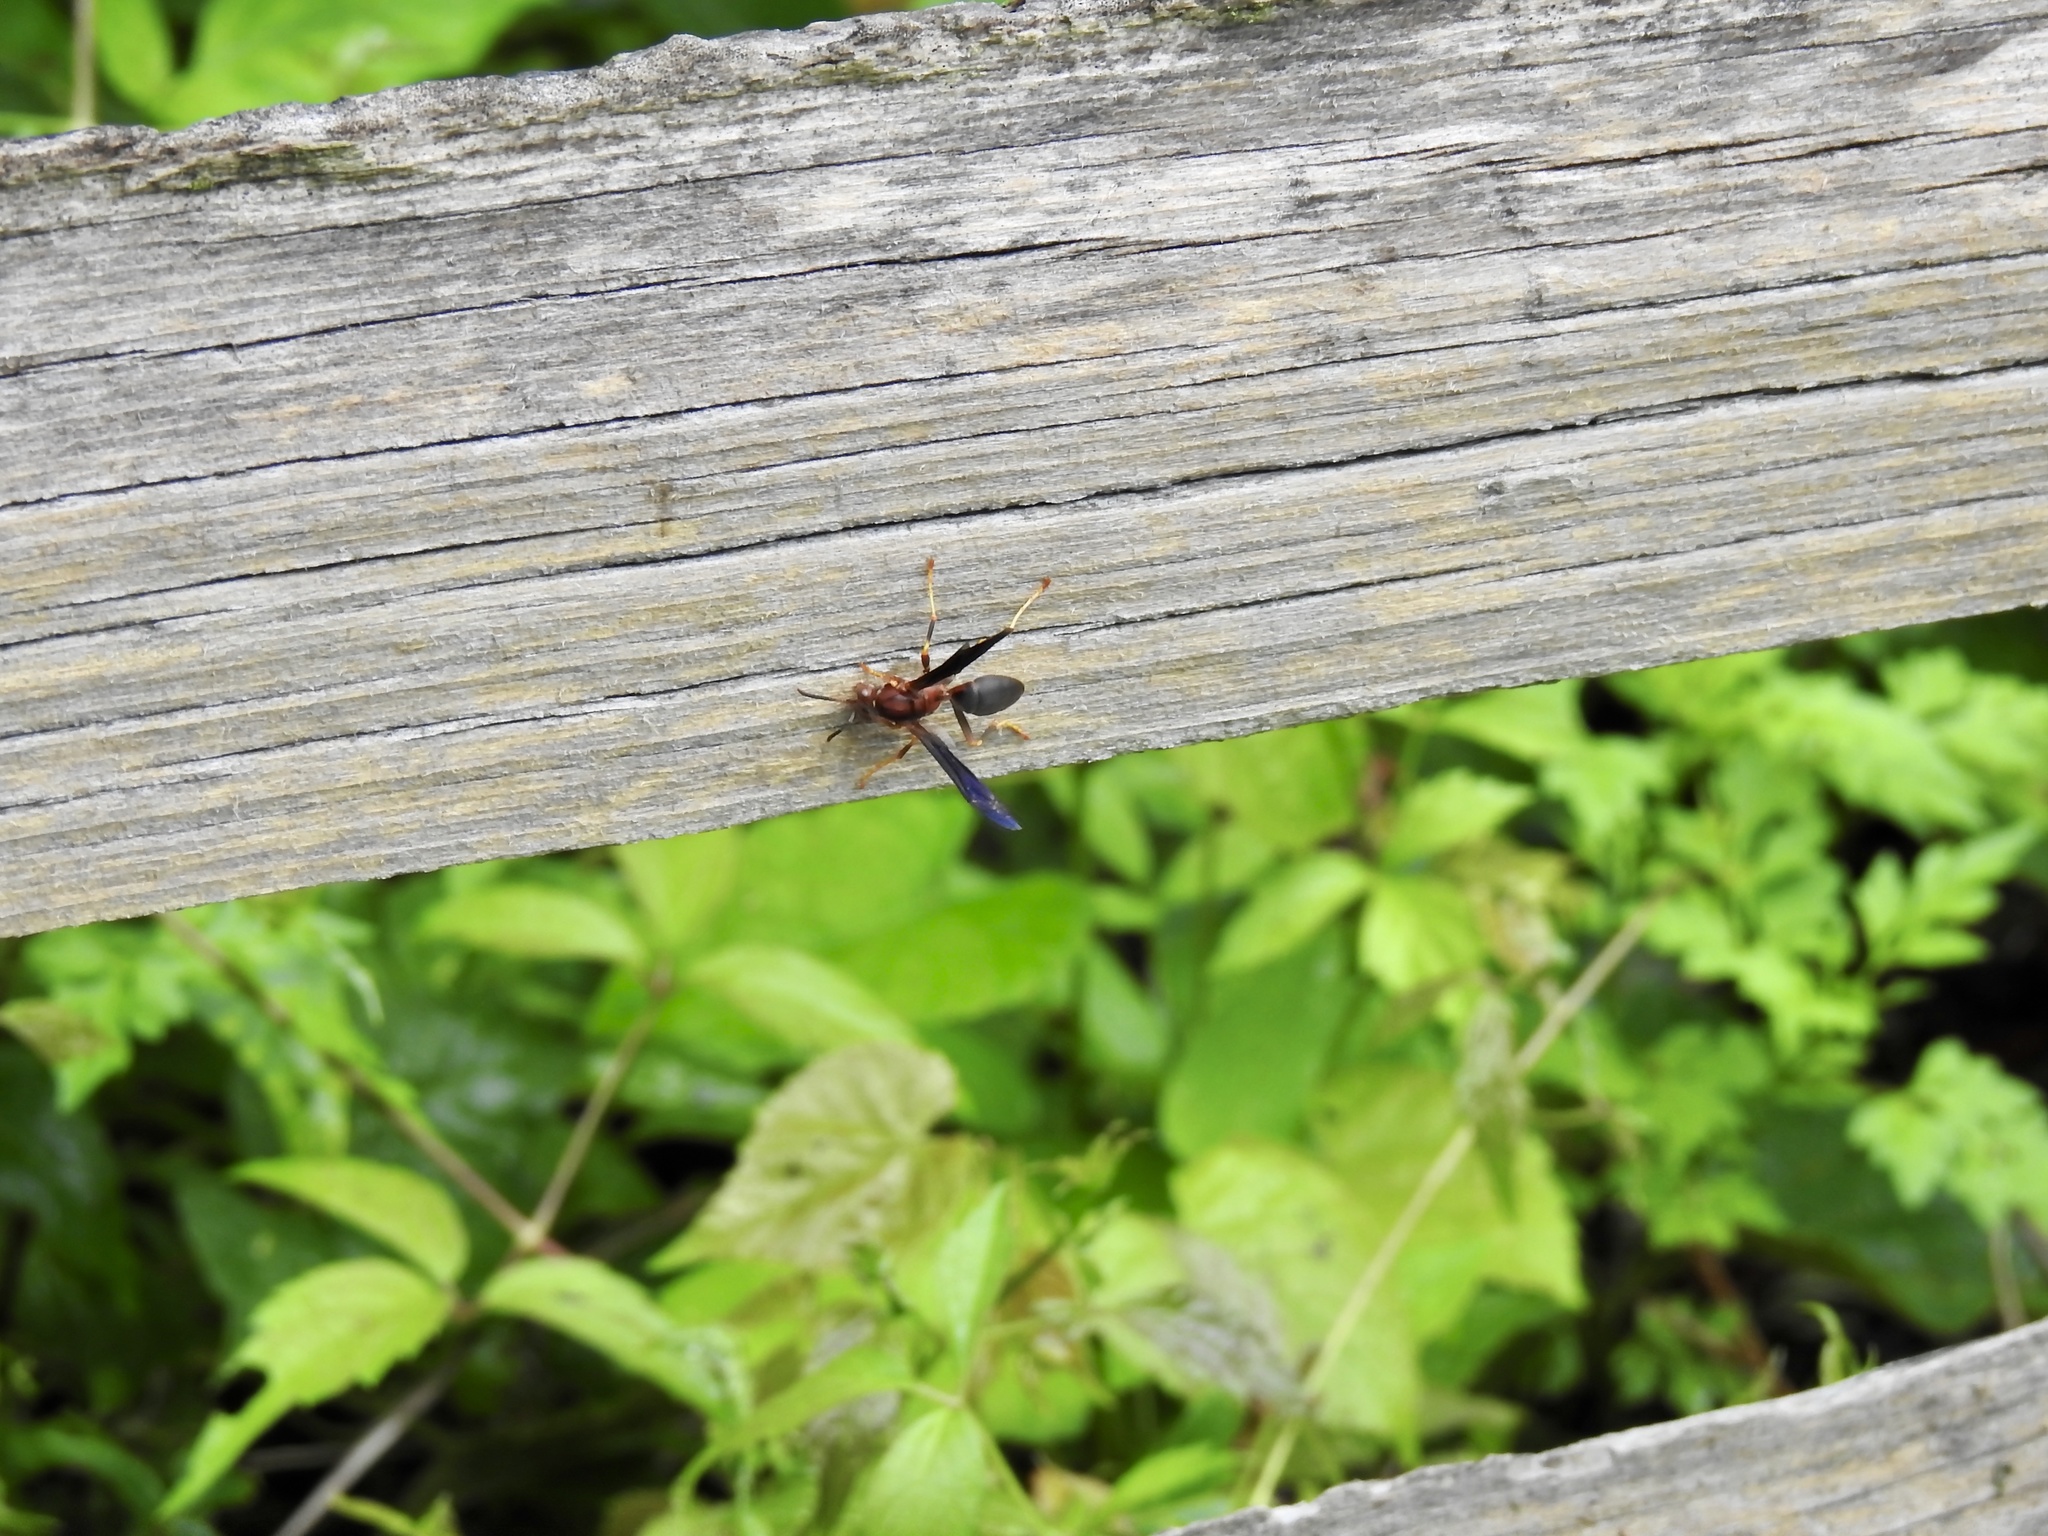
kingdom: Animalia
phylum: Arthropoda
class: Insecta
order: Hymenoptera
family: Eumenidae
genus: Polistes
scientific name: Polistes metricus
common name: Metric paper wasp
